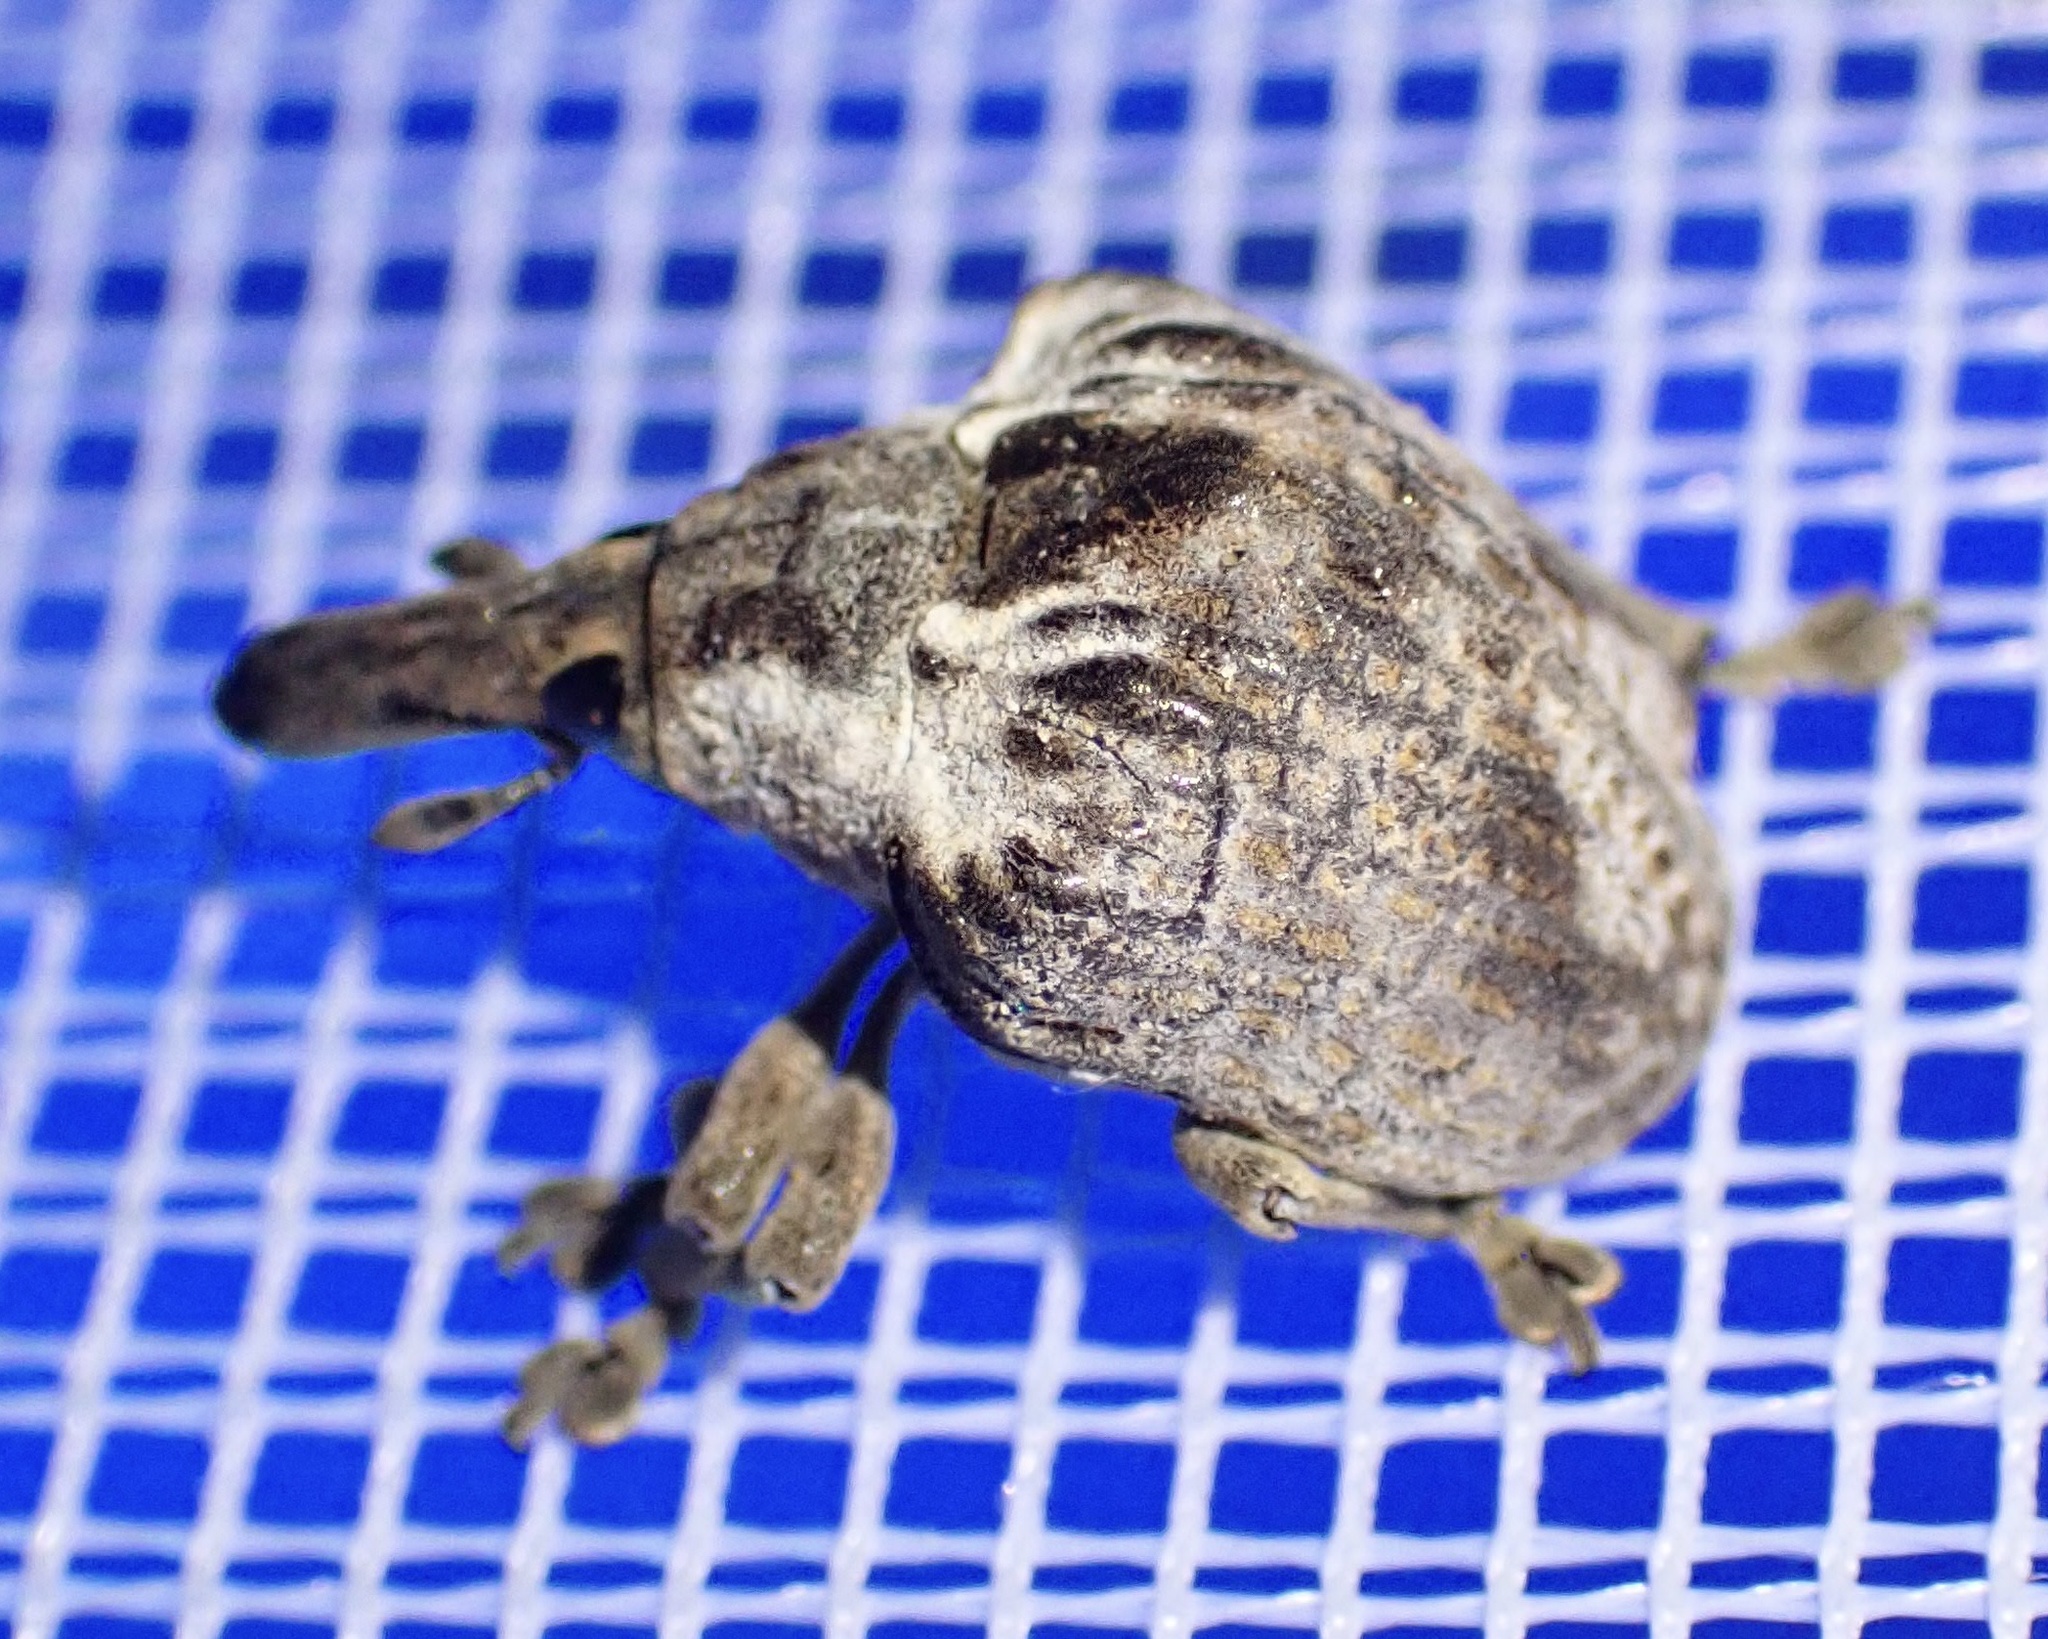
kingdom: Animalia
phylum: Arthropoda
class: Insecta
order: Coleoptera
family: Curculionidae
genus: Omophorus
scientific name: Omophorus stomachosus
